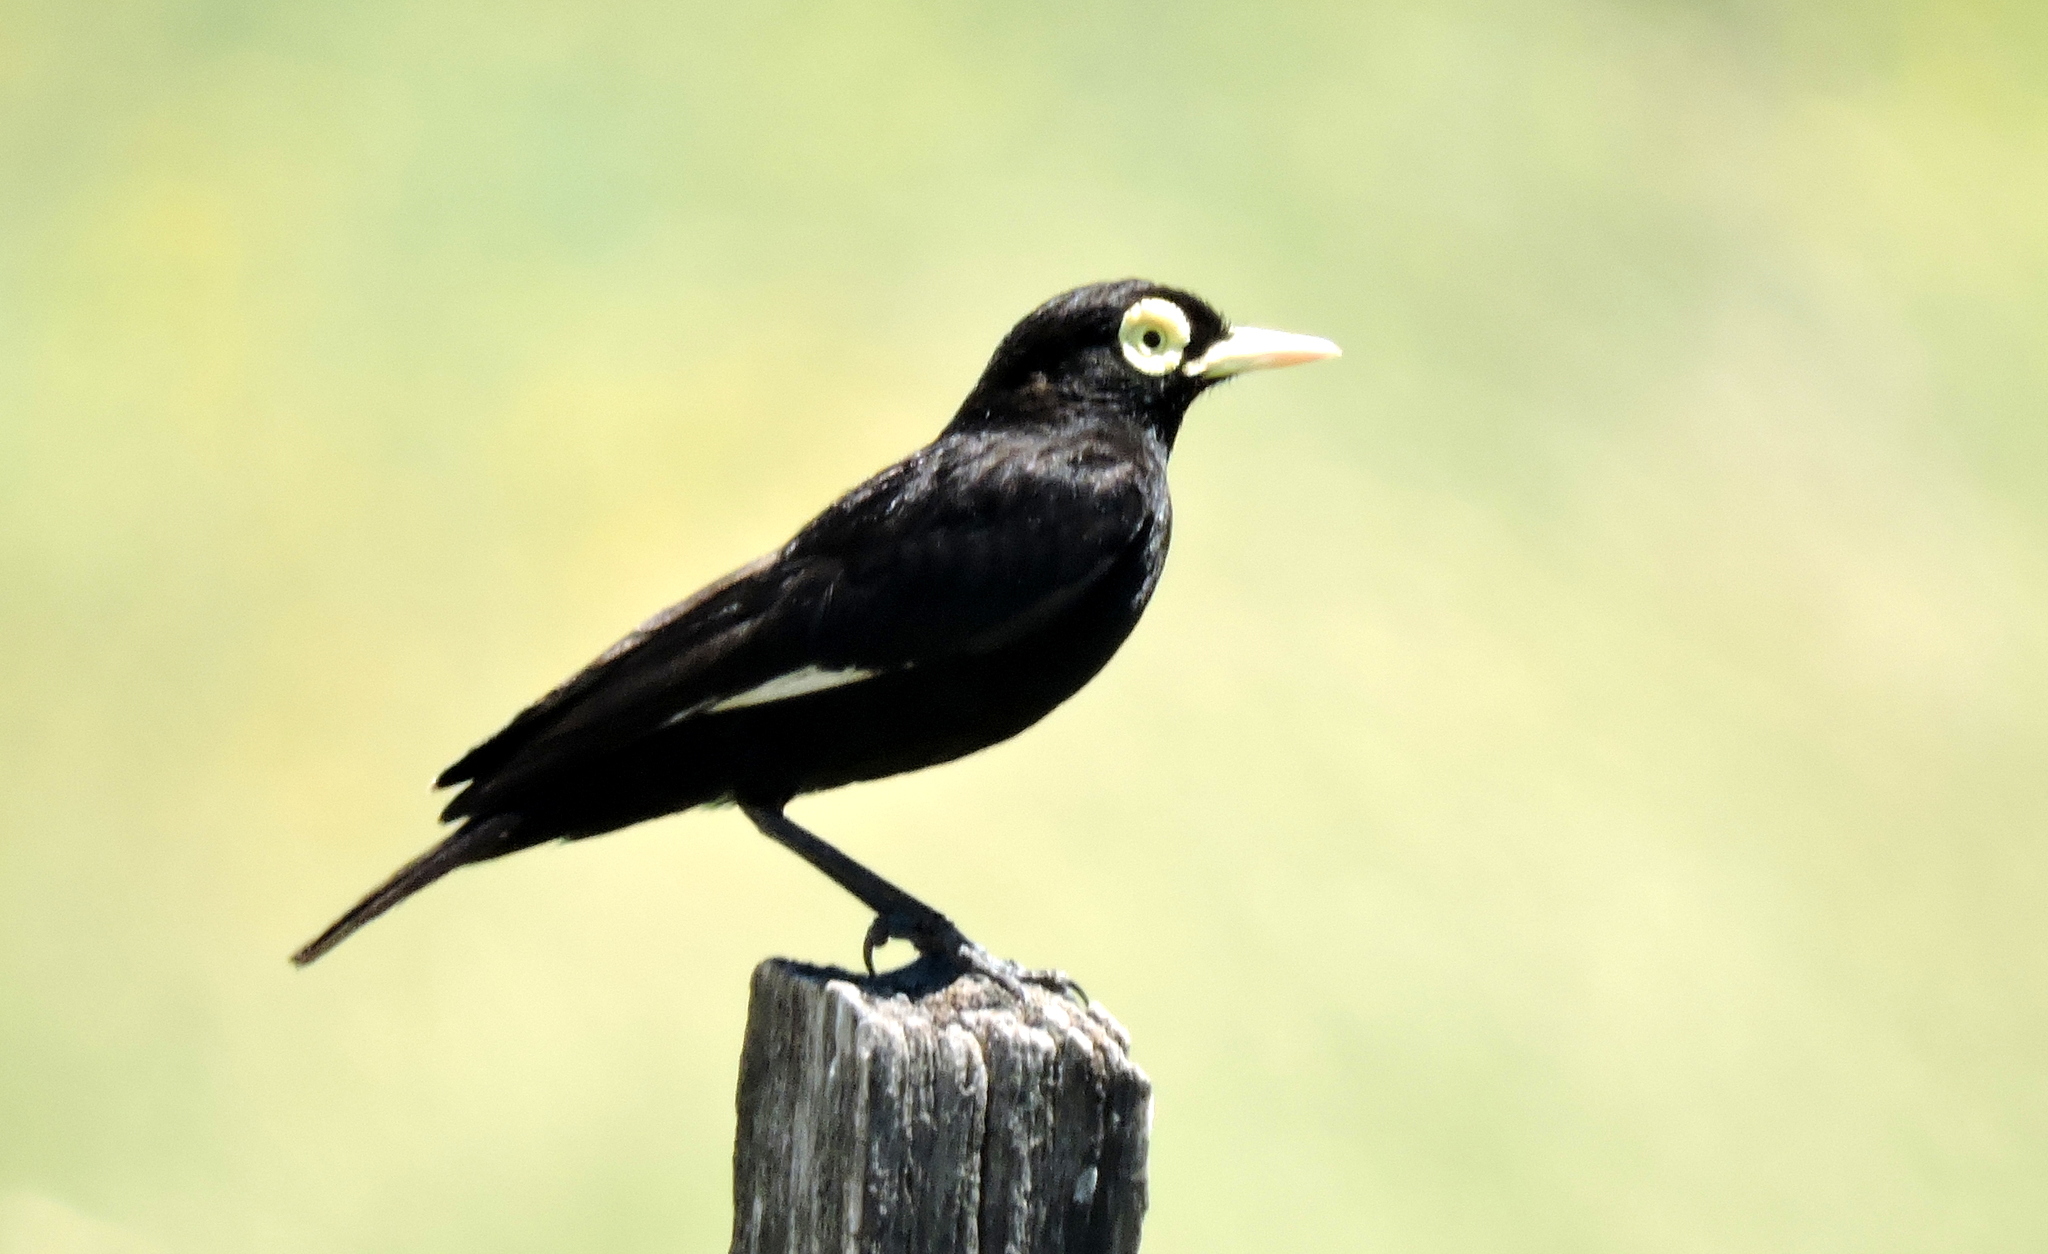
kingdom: Animalia
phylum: Chordata
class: Aves
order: Passeriformes
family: Tyrannidae
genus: Hymenops
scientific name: Hymenops perspicillatus
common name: Spectacled tyrant
